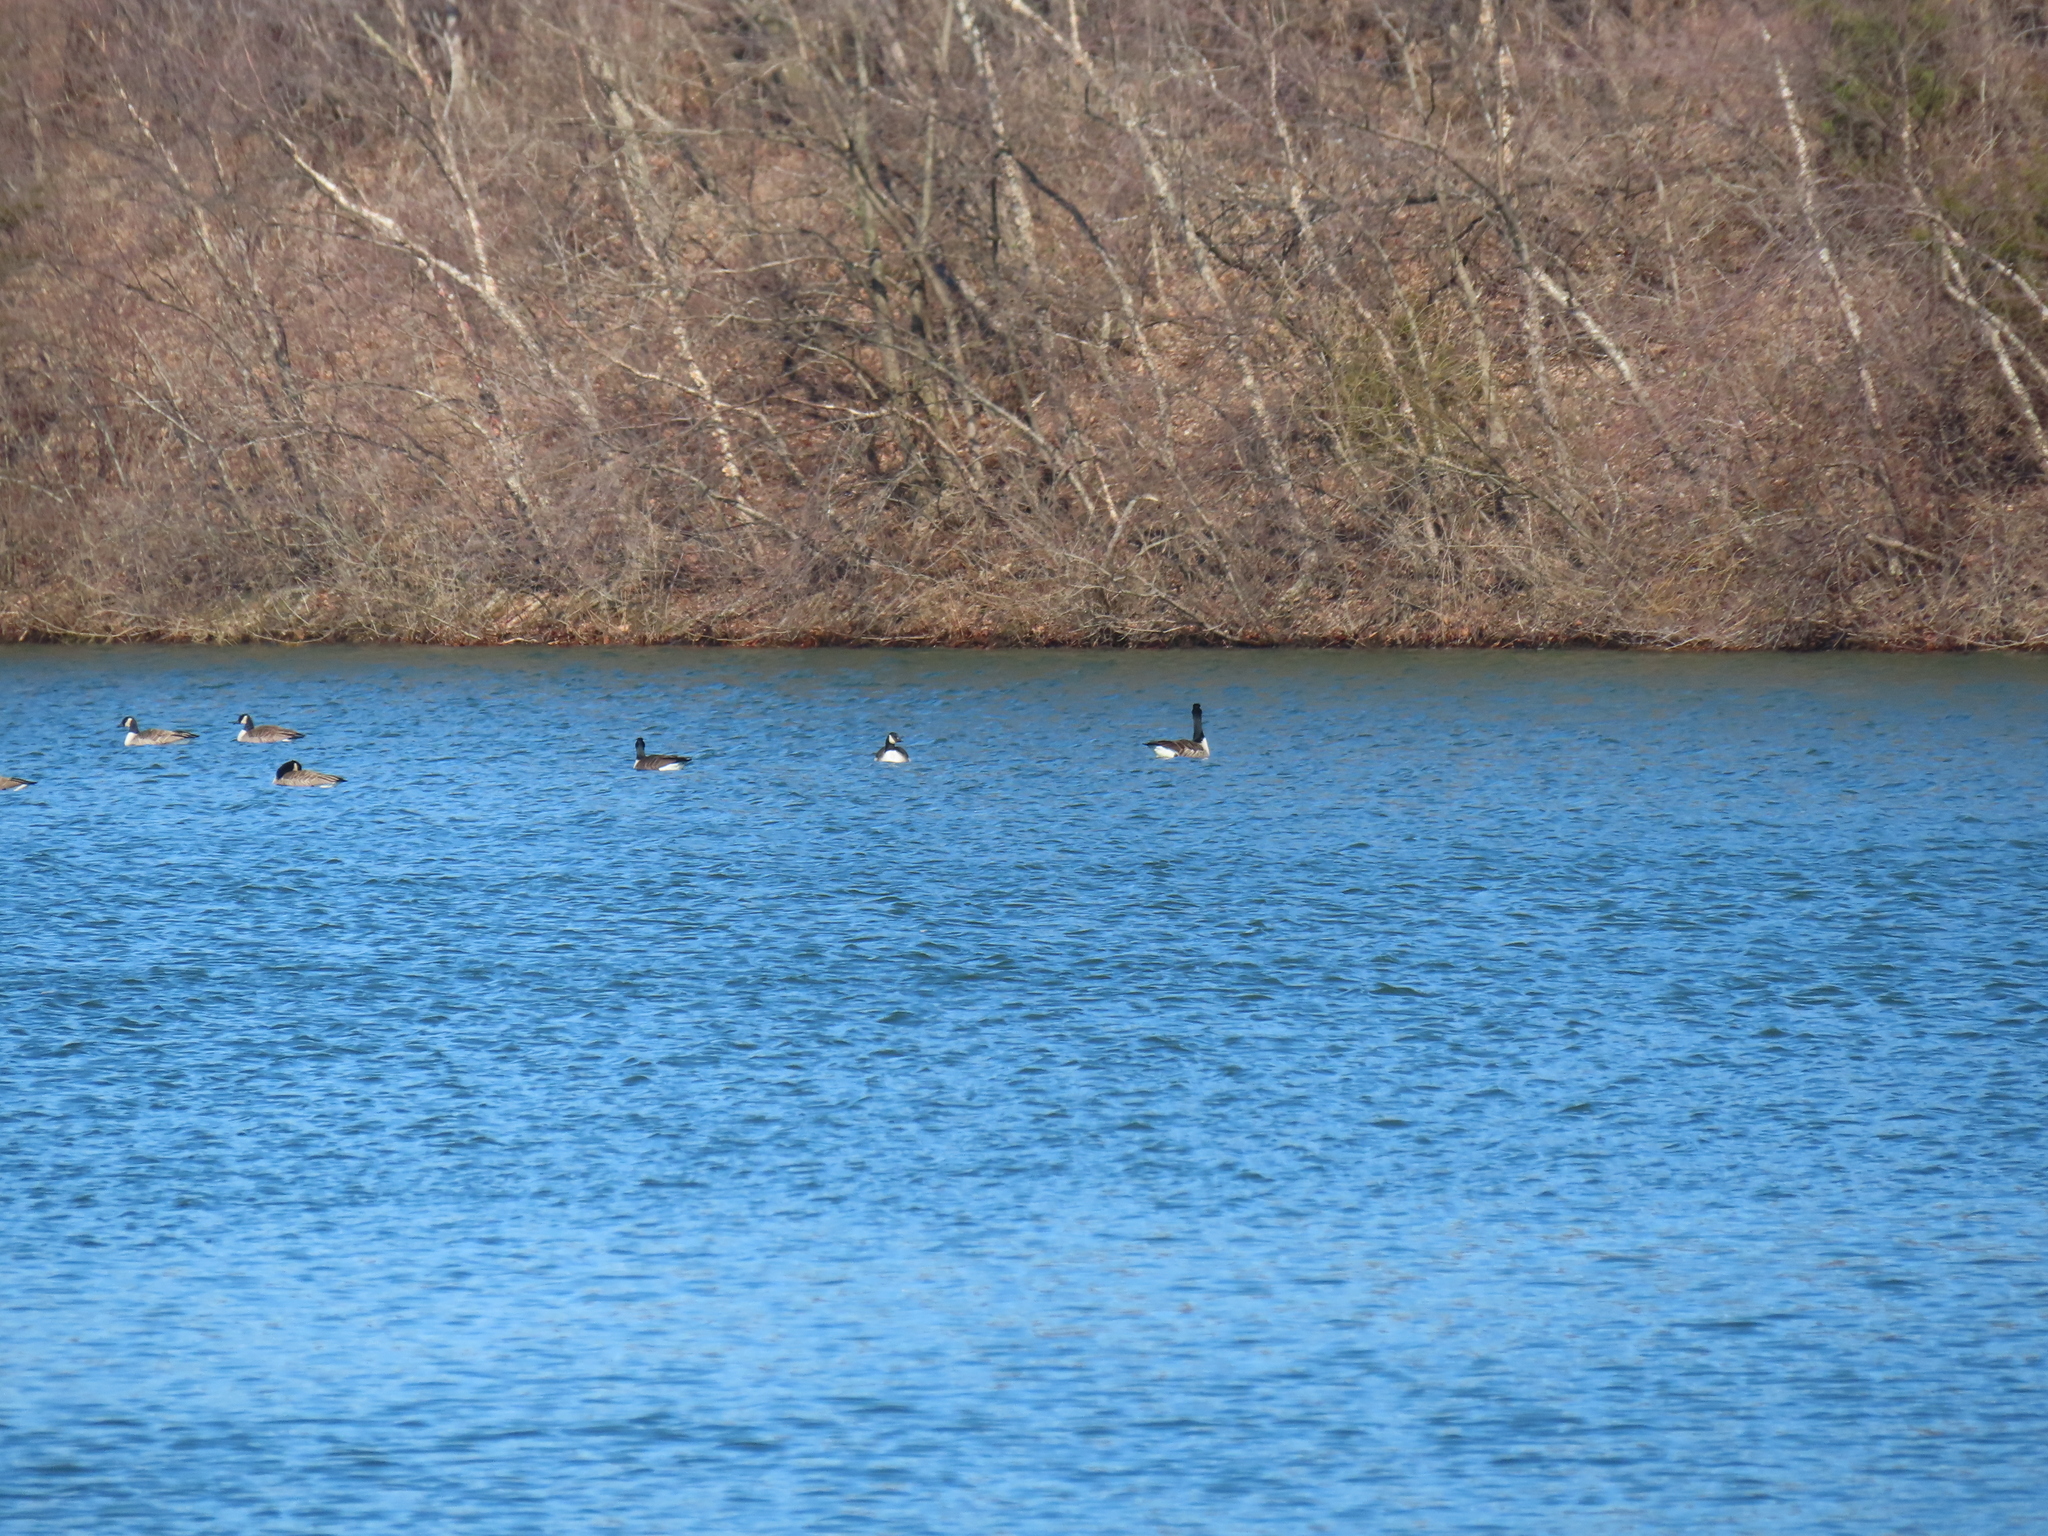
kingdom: Animalia
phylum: Chordata
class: Aves
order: Anseriformes
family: Anatidae
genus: Branta
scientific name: Branta canadensis
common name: Canada goose
